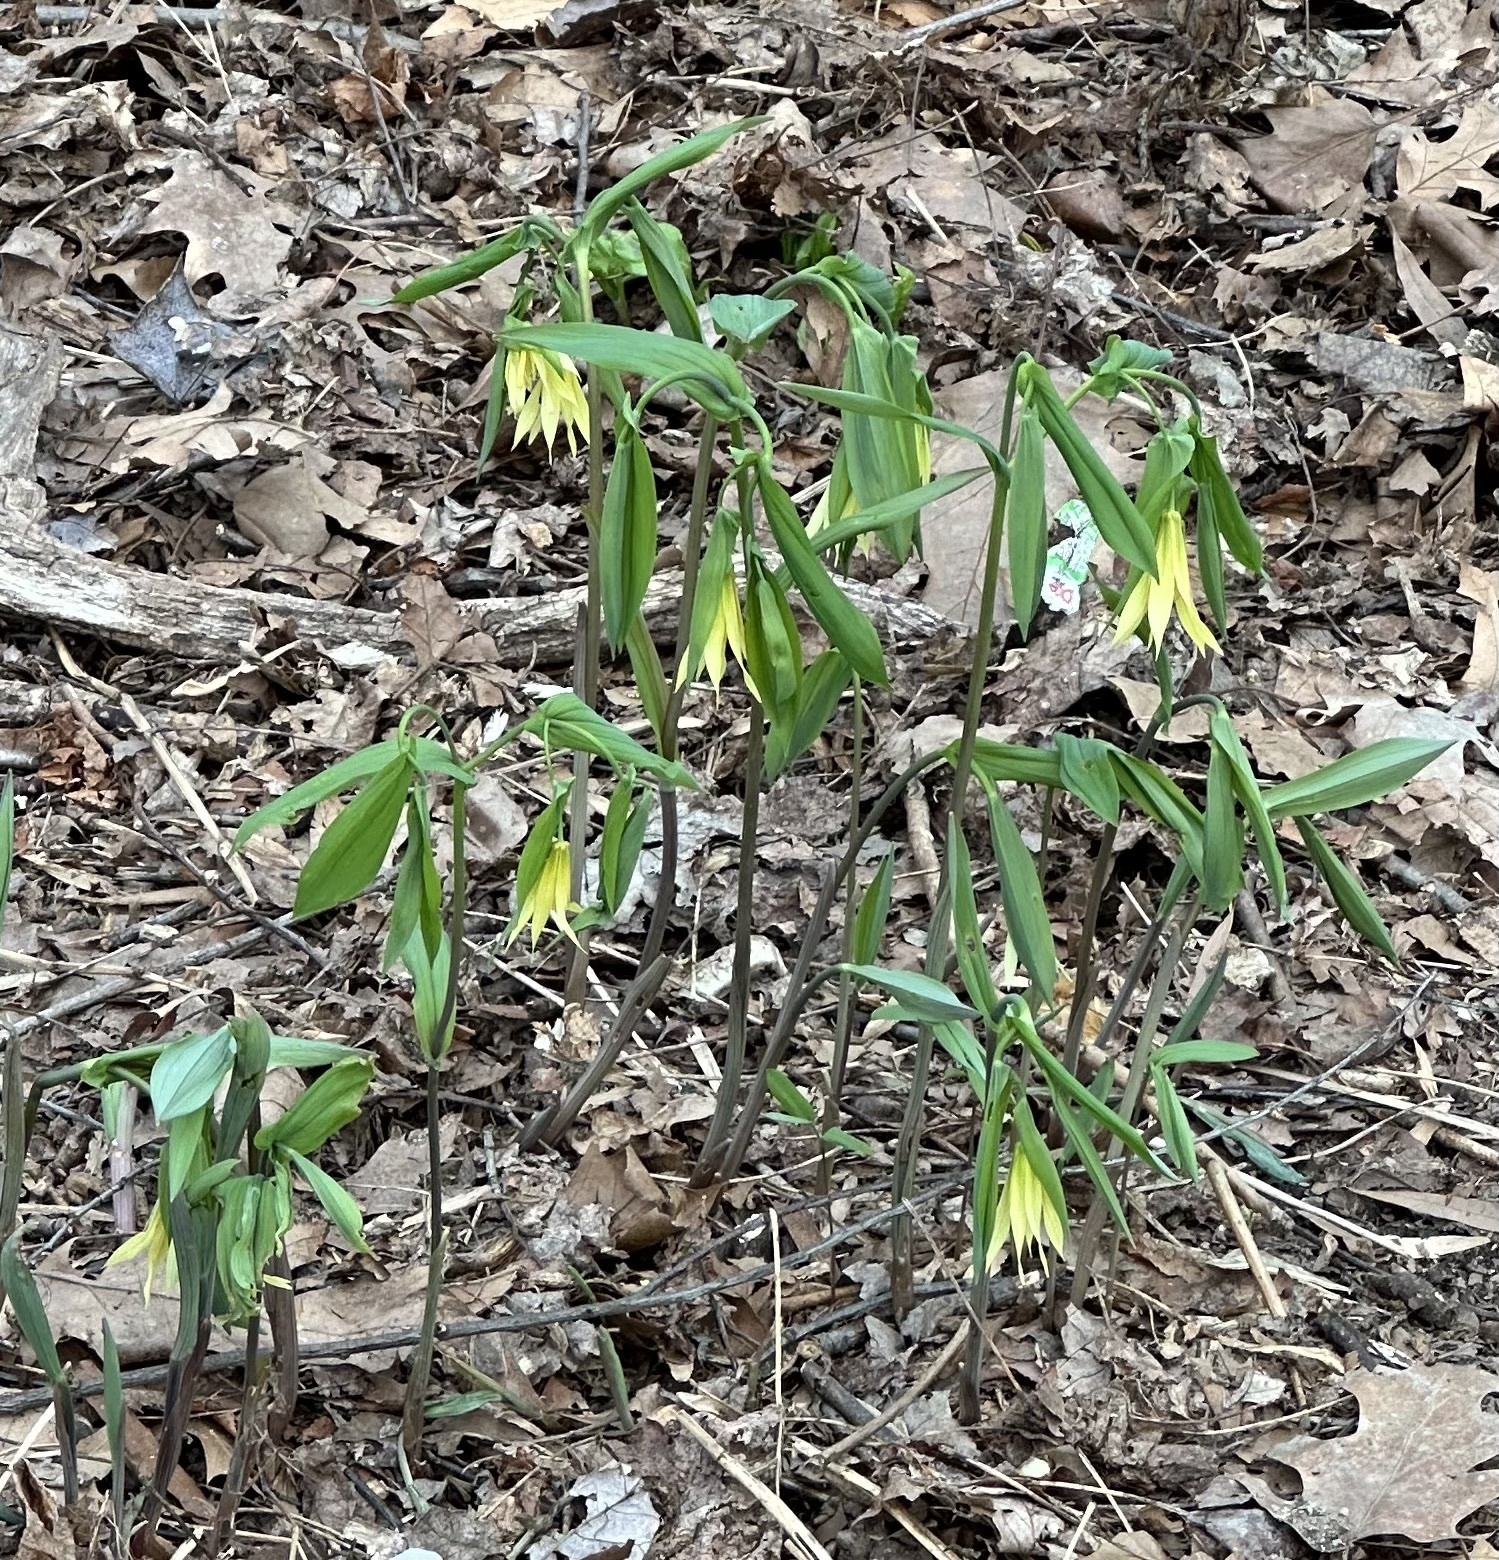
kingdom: Plantae
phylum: Tracheophyta
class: Liliopsida
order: Liliales
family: Colchicaceae
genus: Uvularia
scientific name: Uvularia grandiflora
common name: Bellwort
